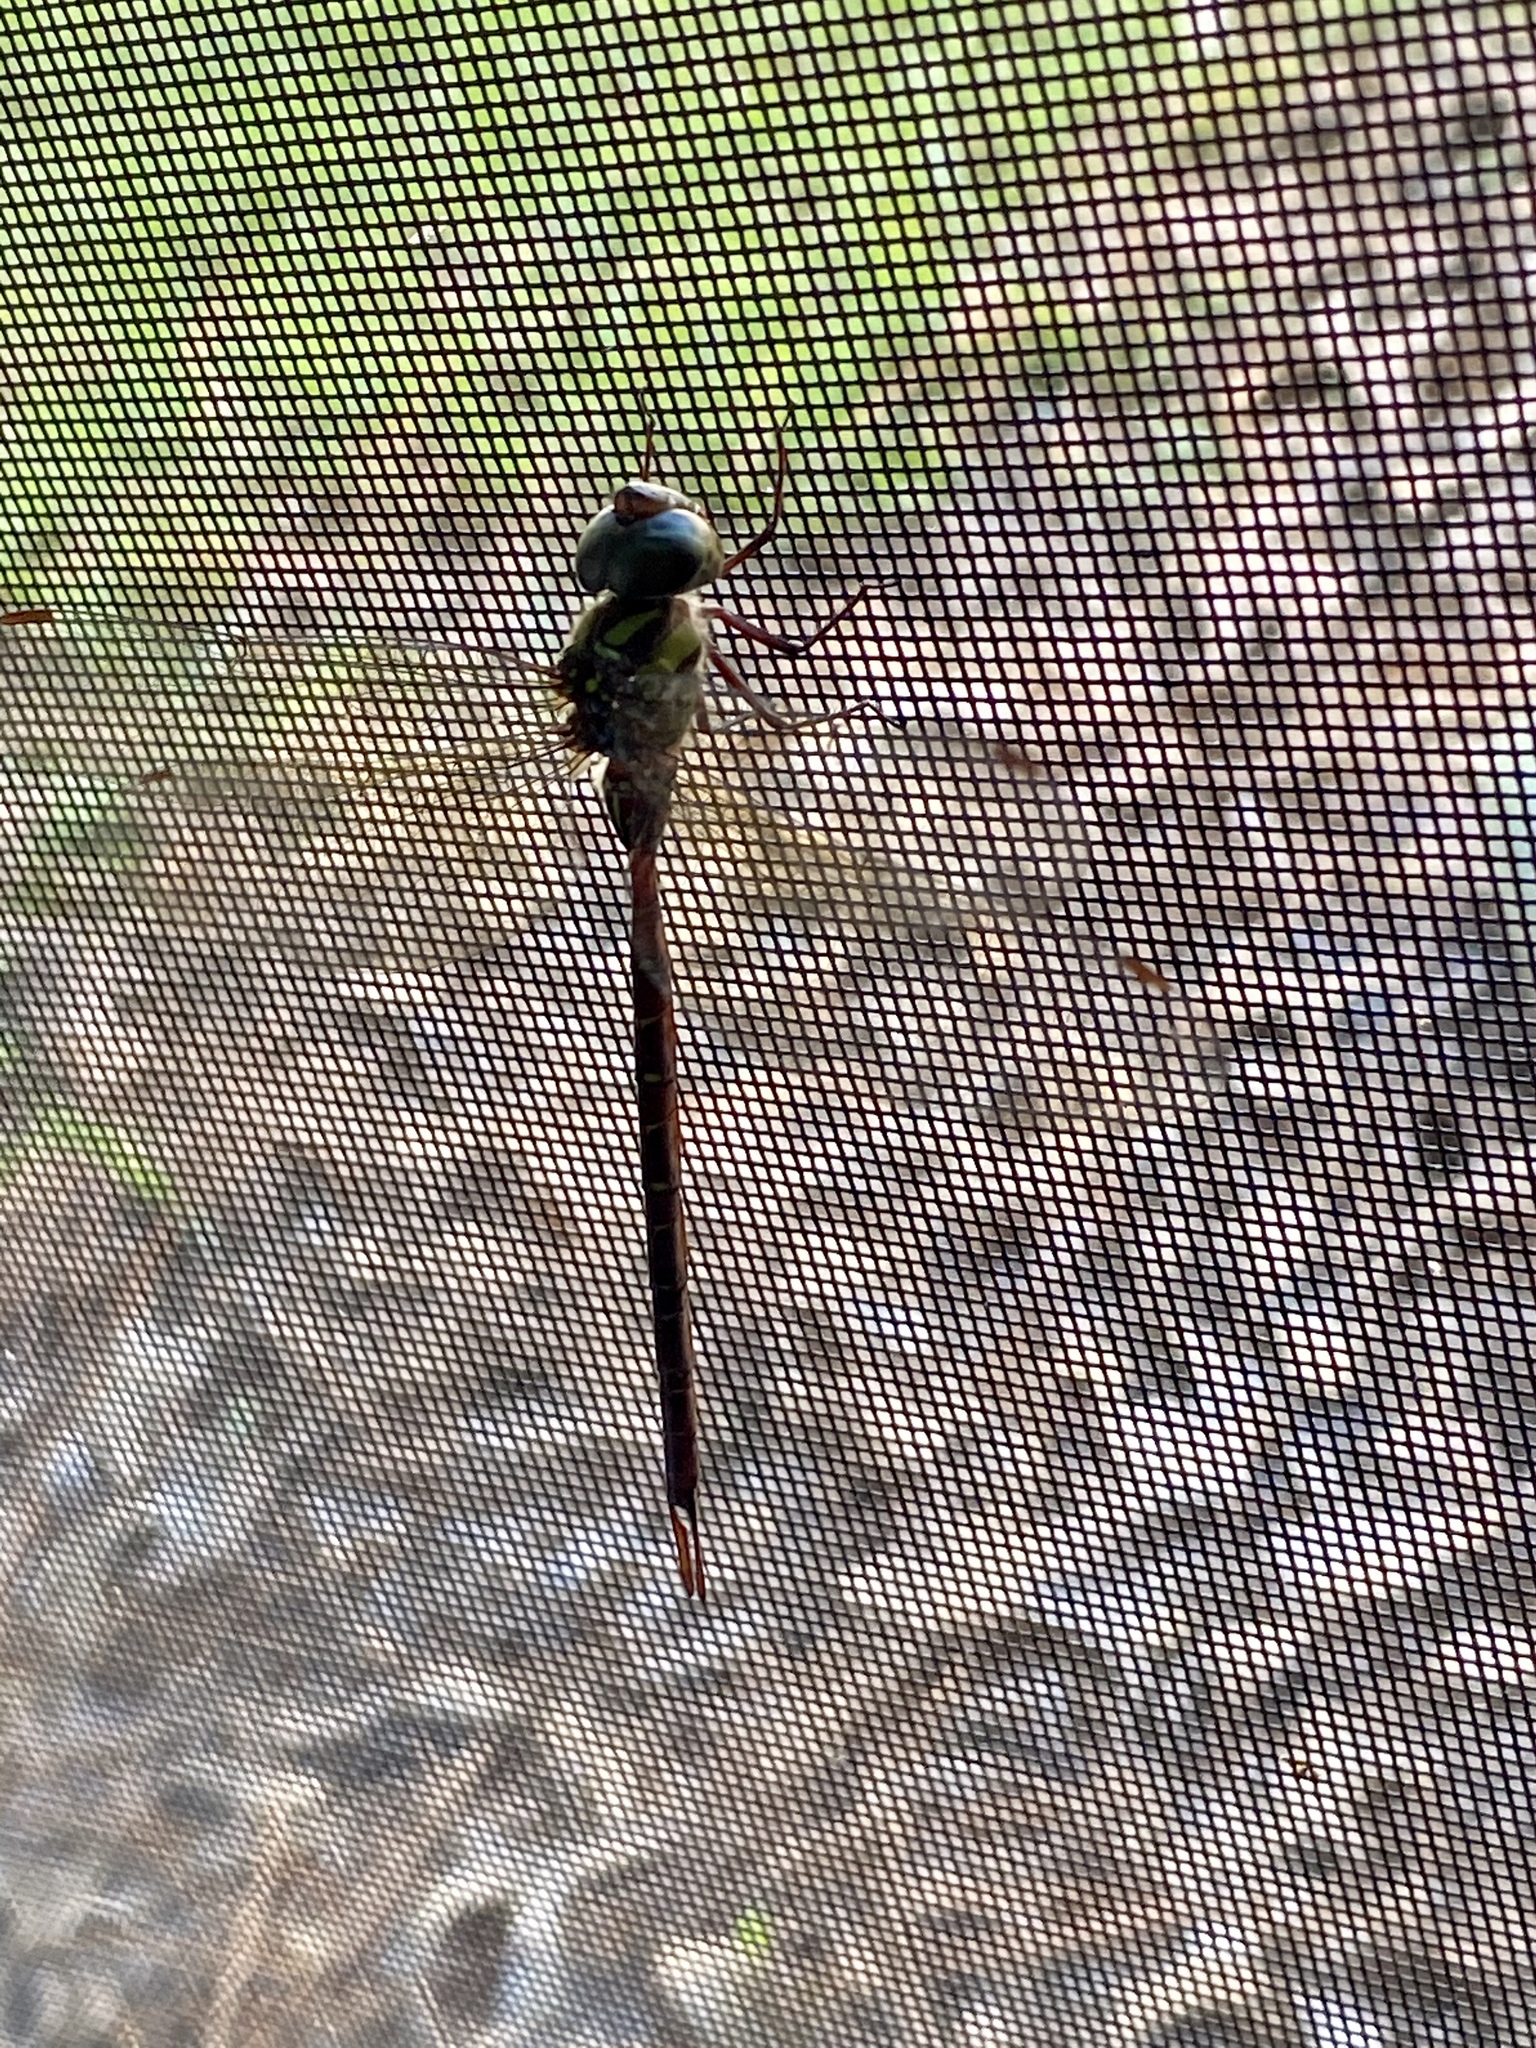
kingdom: Animalia
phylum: Arthropoda
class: Insecta
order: Odonata
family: Aeshnidae
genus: Triacanthagyna
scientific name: Triacanthagyna trifida
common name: Phantom darner
